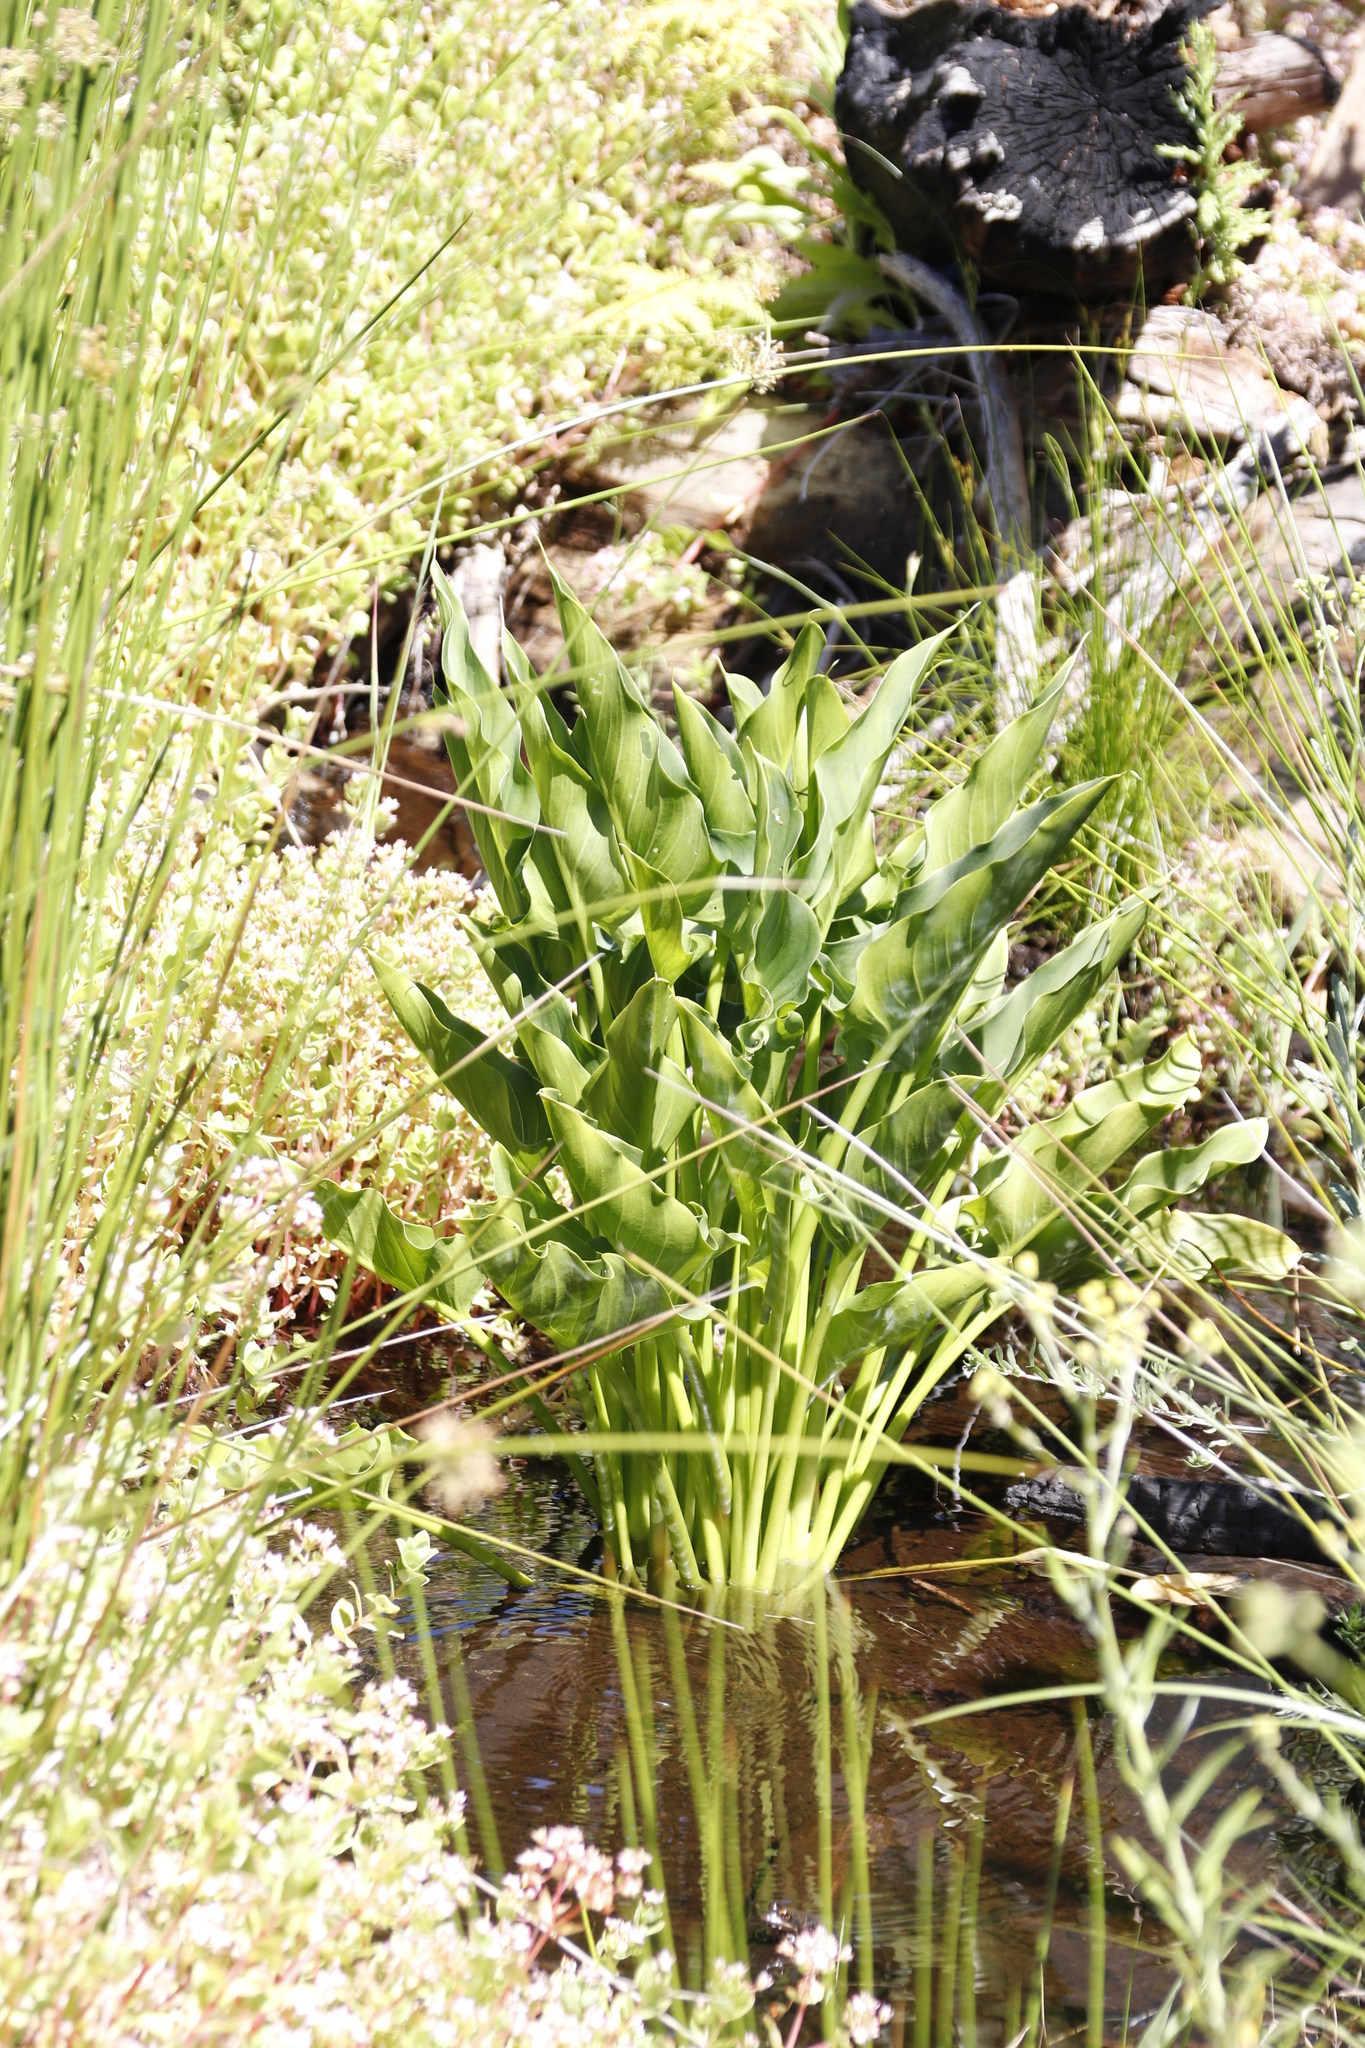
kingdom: Plantae
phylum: Tracheophyta
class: Liliopsida
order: Alismatales
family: Araceae
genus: Zantedeschia
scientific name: Zantedeschia aethiopica
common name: Altar-lily
